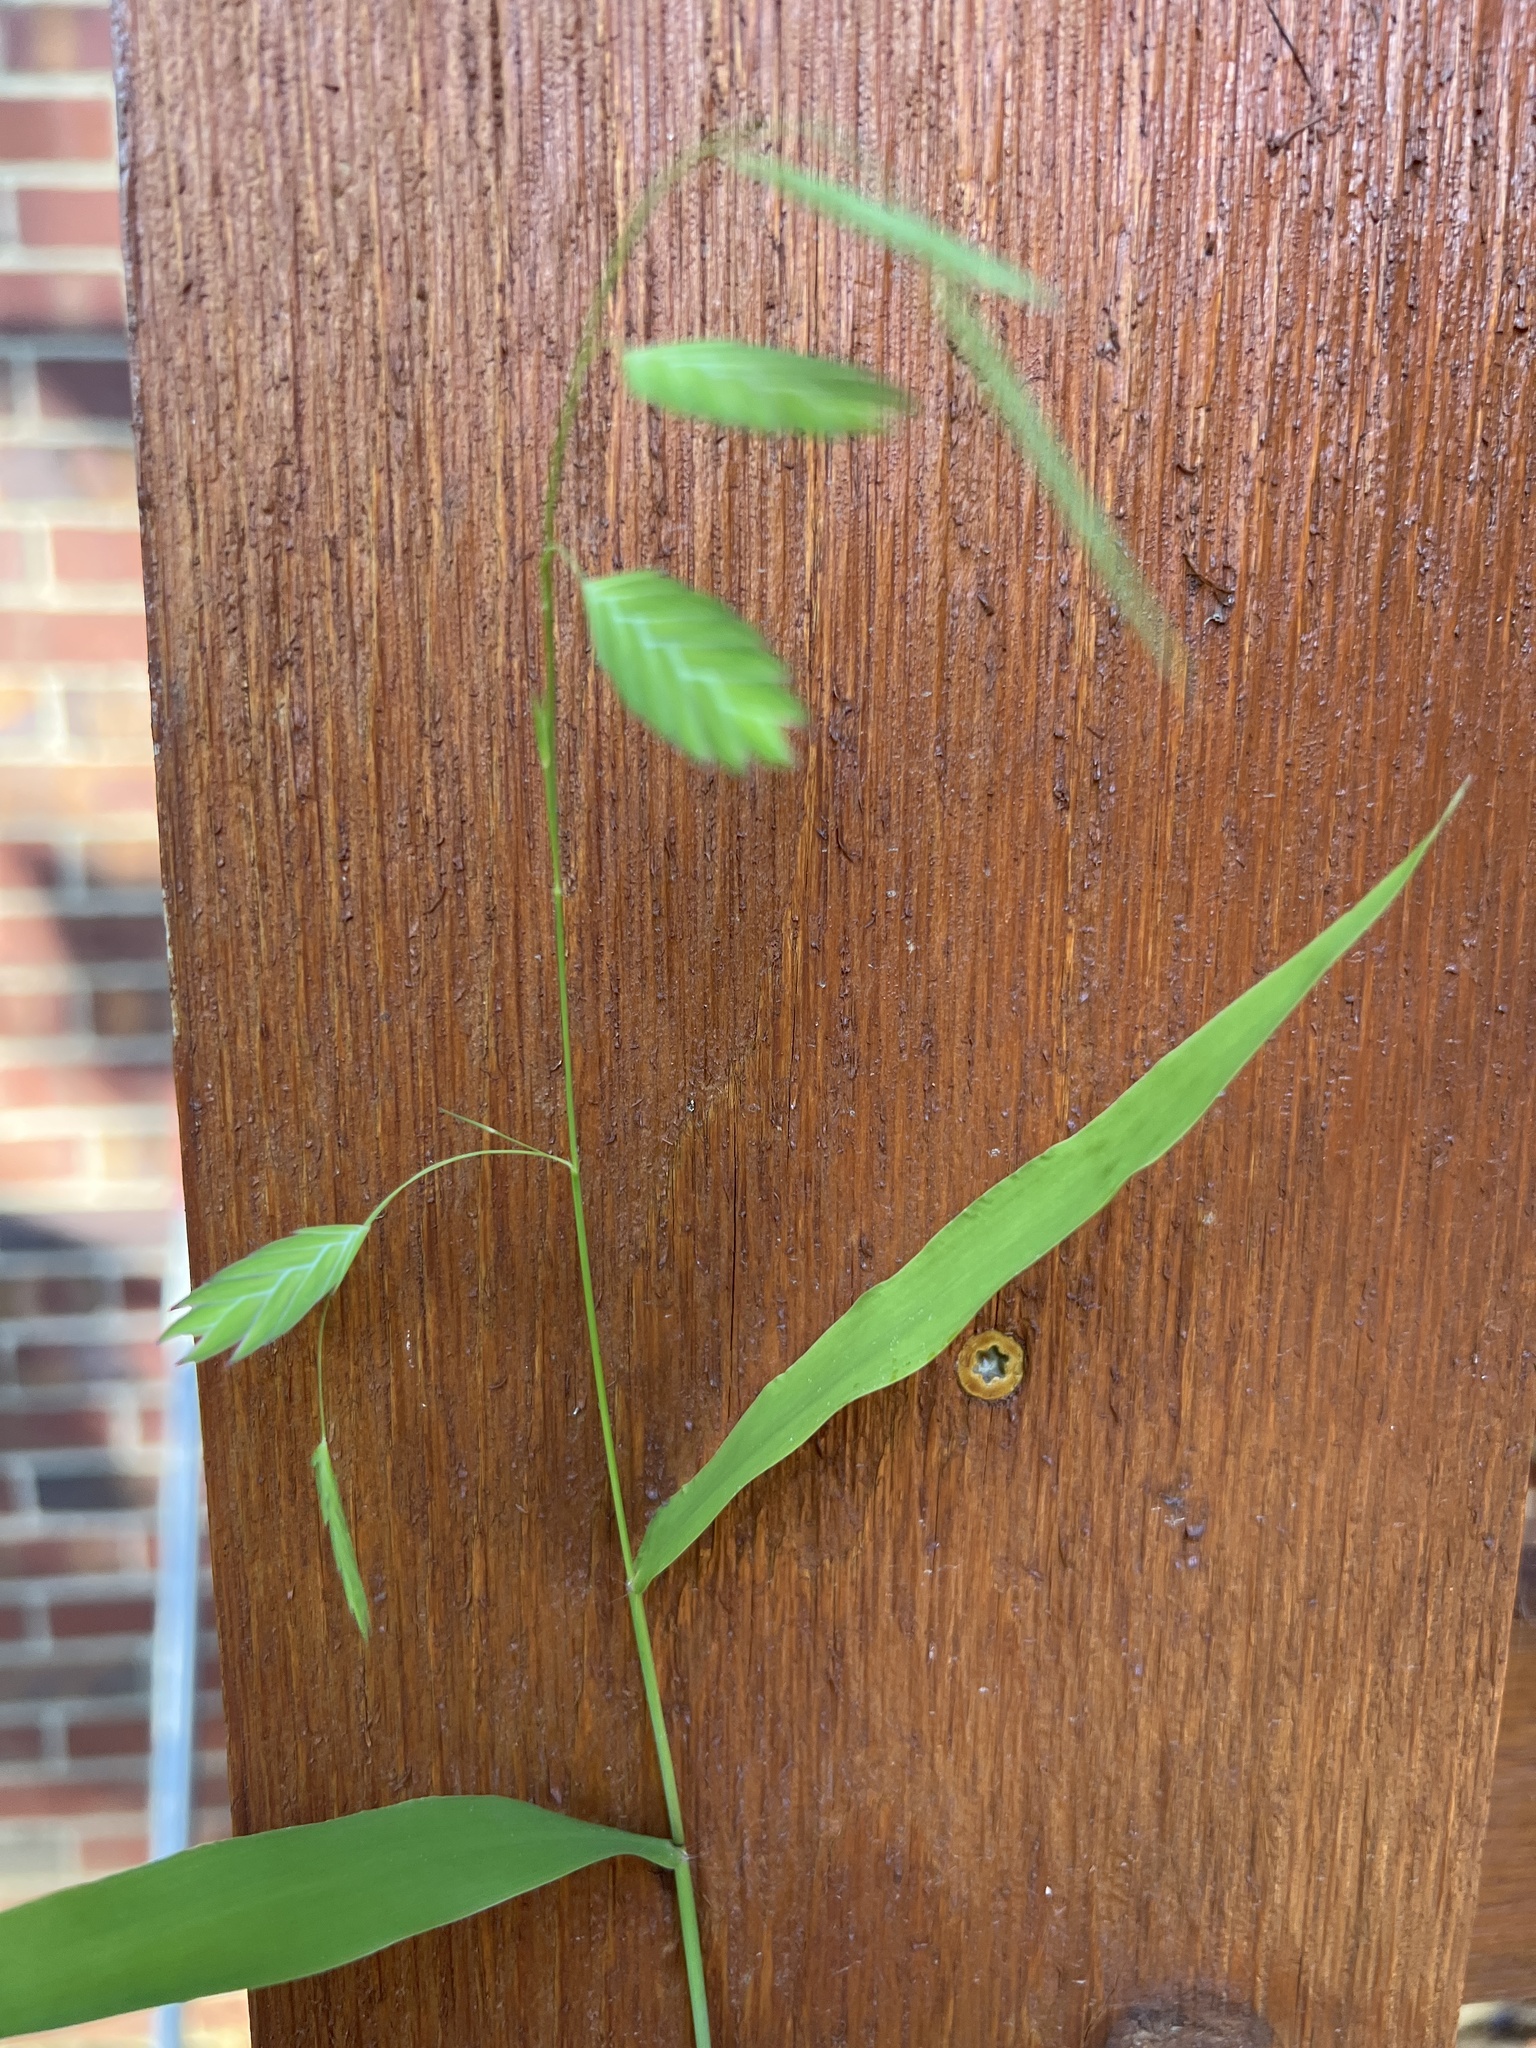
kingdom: Plantae
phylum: Tracheophyta
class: Liliopsida
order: Poales
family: Poaceae
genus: Chasmanthium
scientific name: Chasmanthium latifolium
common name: Broad-leaved chasmanthium
